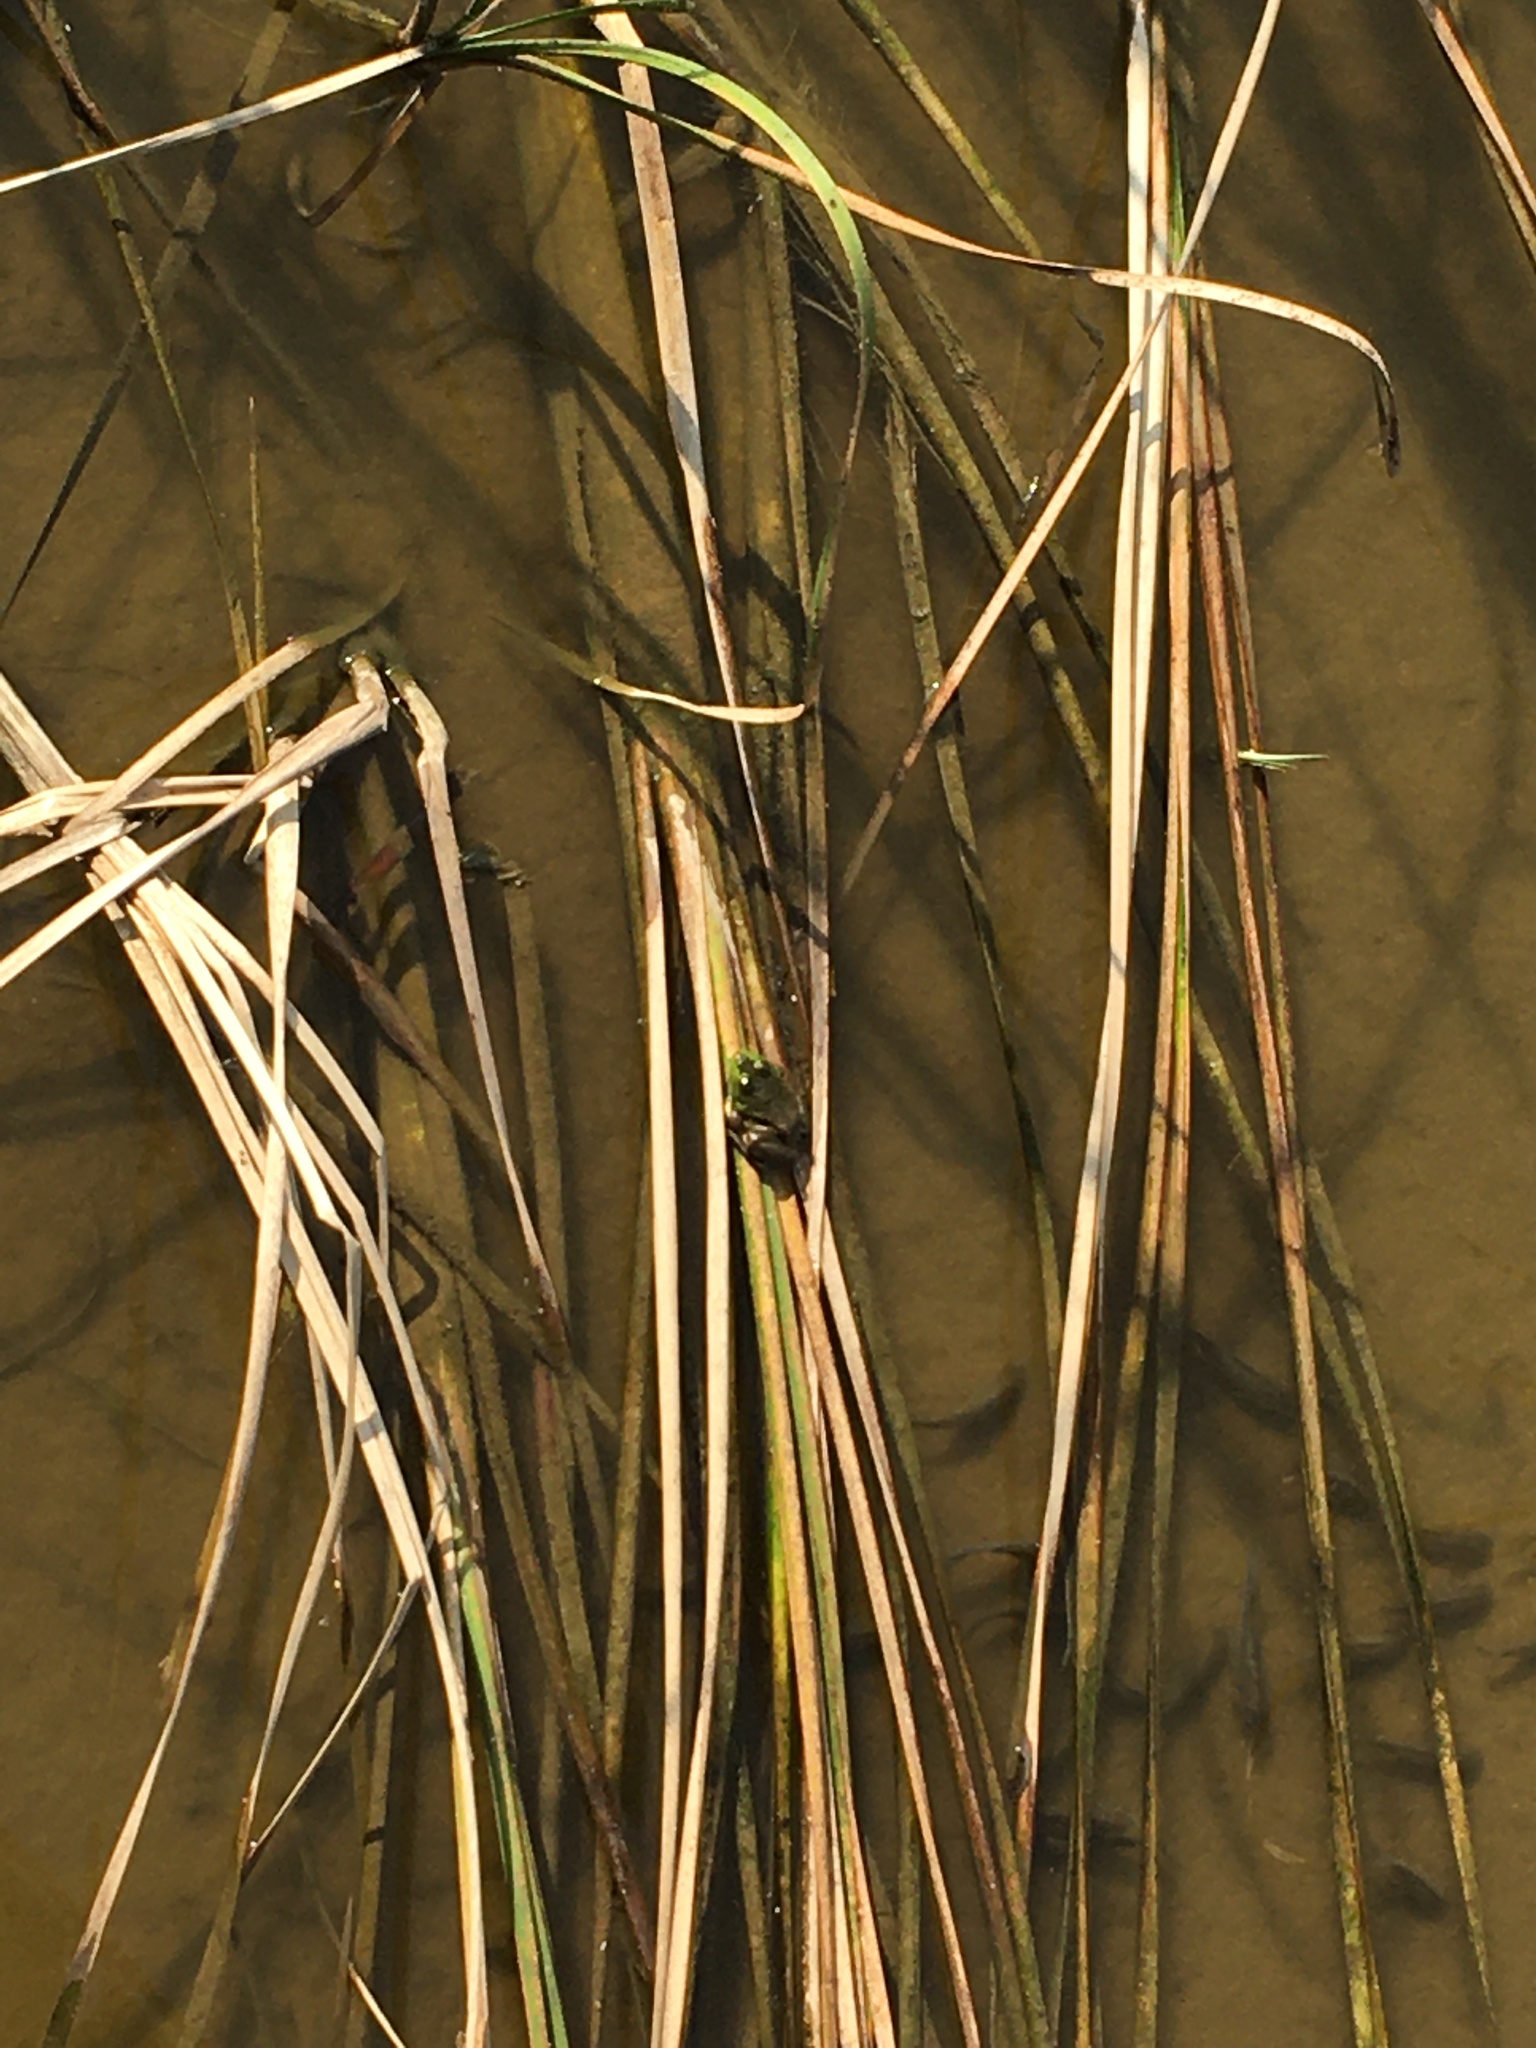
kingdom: Animalia
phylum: Chordata
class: Amphibia
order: Anura
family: Ranidae
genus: Lithobates
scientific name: Lithobates catesbeianus
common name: American bullfrog
